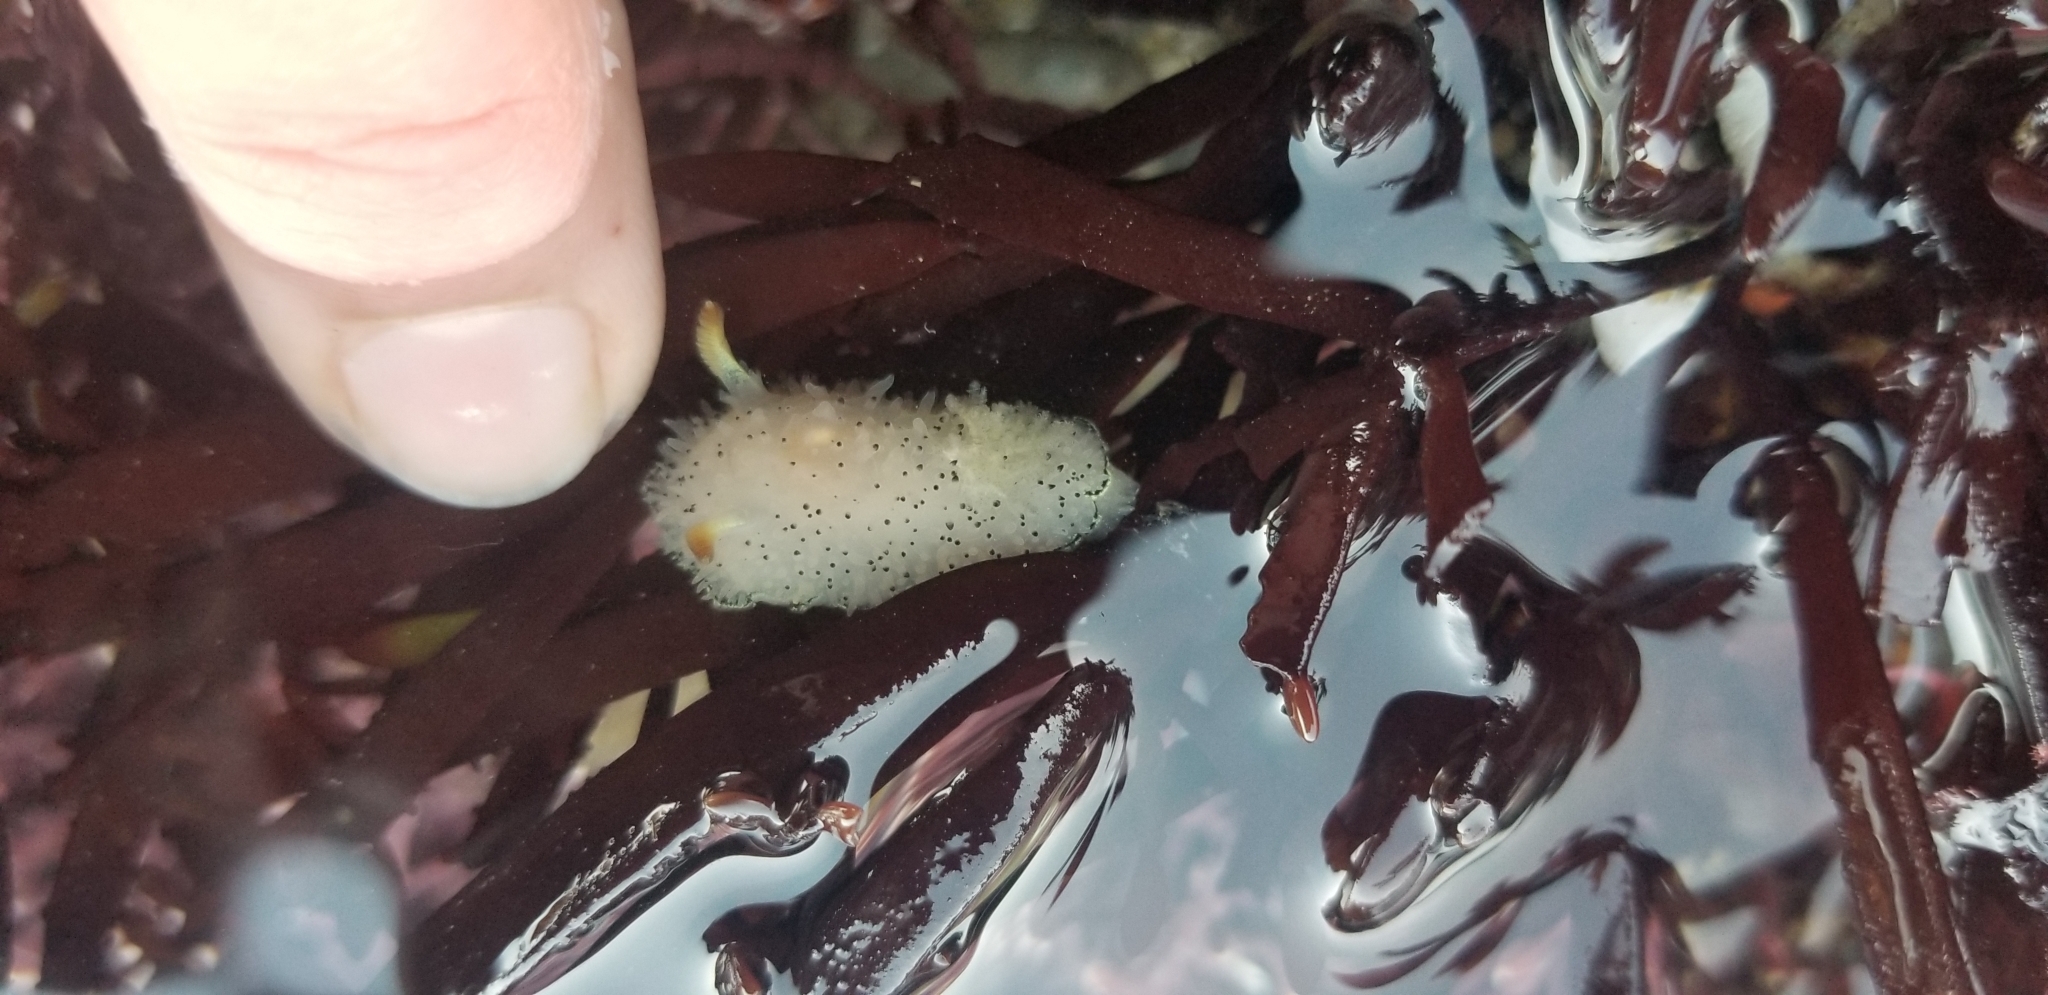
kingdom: Animalia
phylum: Mollusca
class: Gastropoda
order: Nudibranchia
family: Onchidorididae
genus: Acanthodoris
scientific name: Acanthodoris rhodoceras
